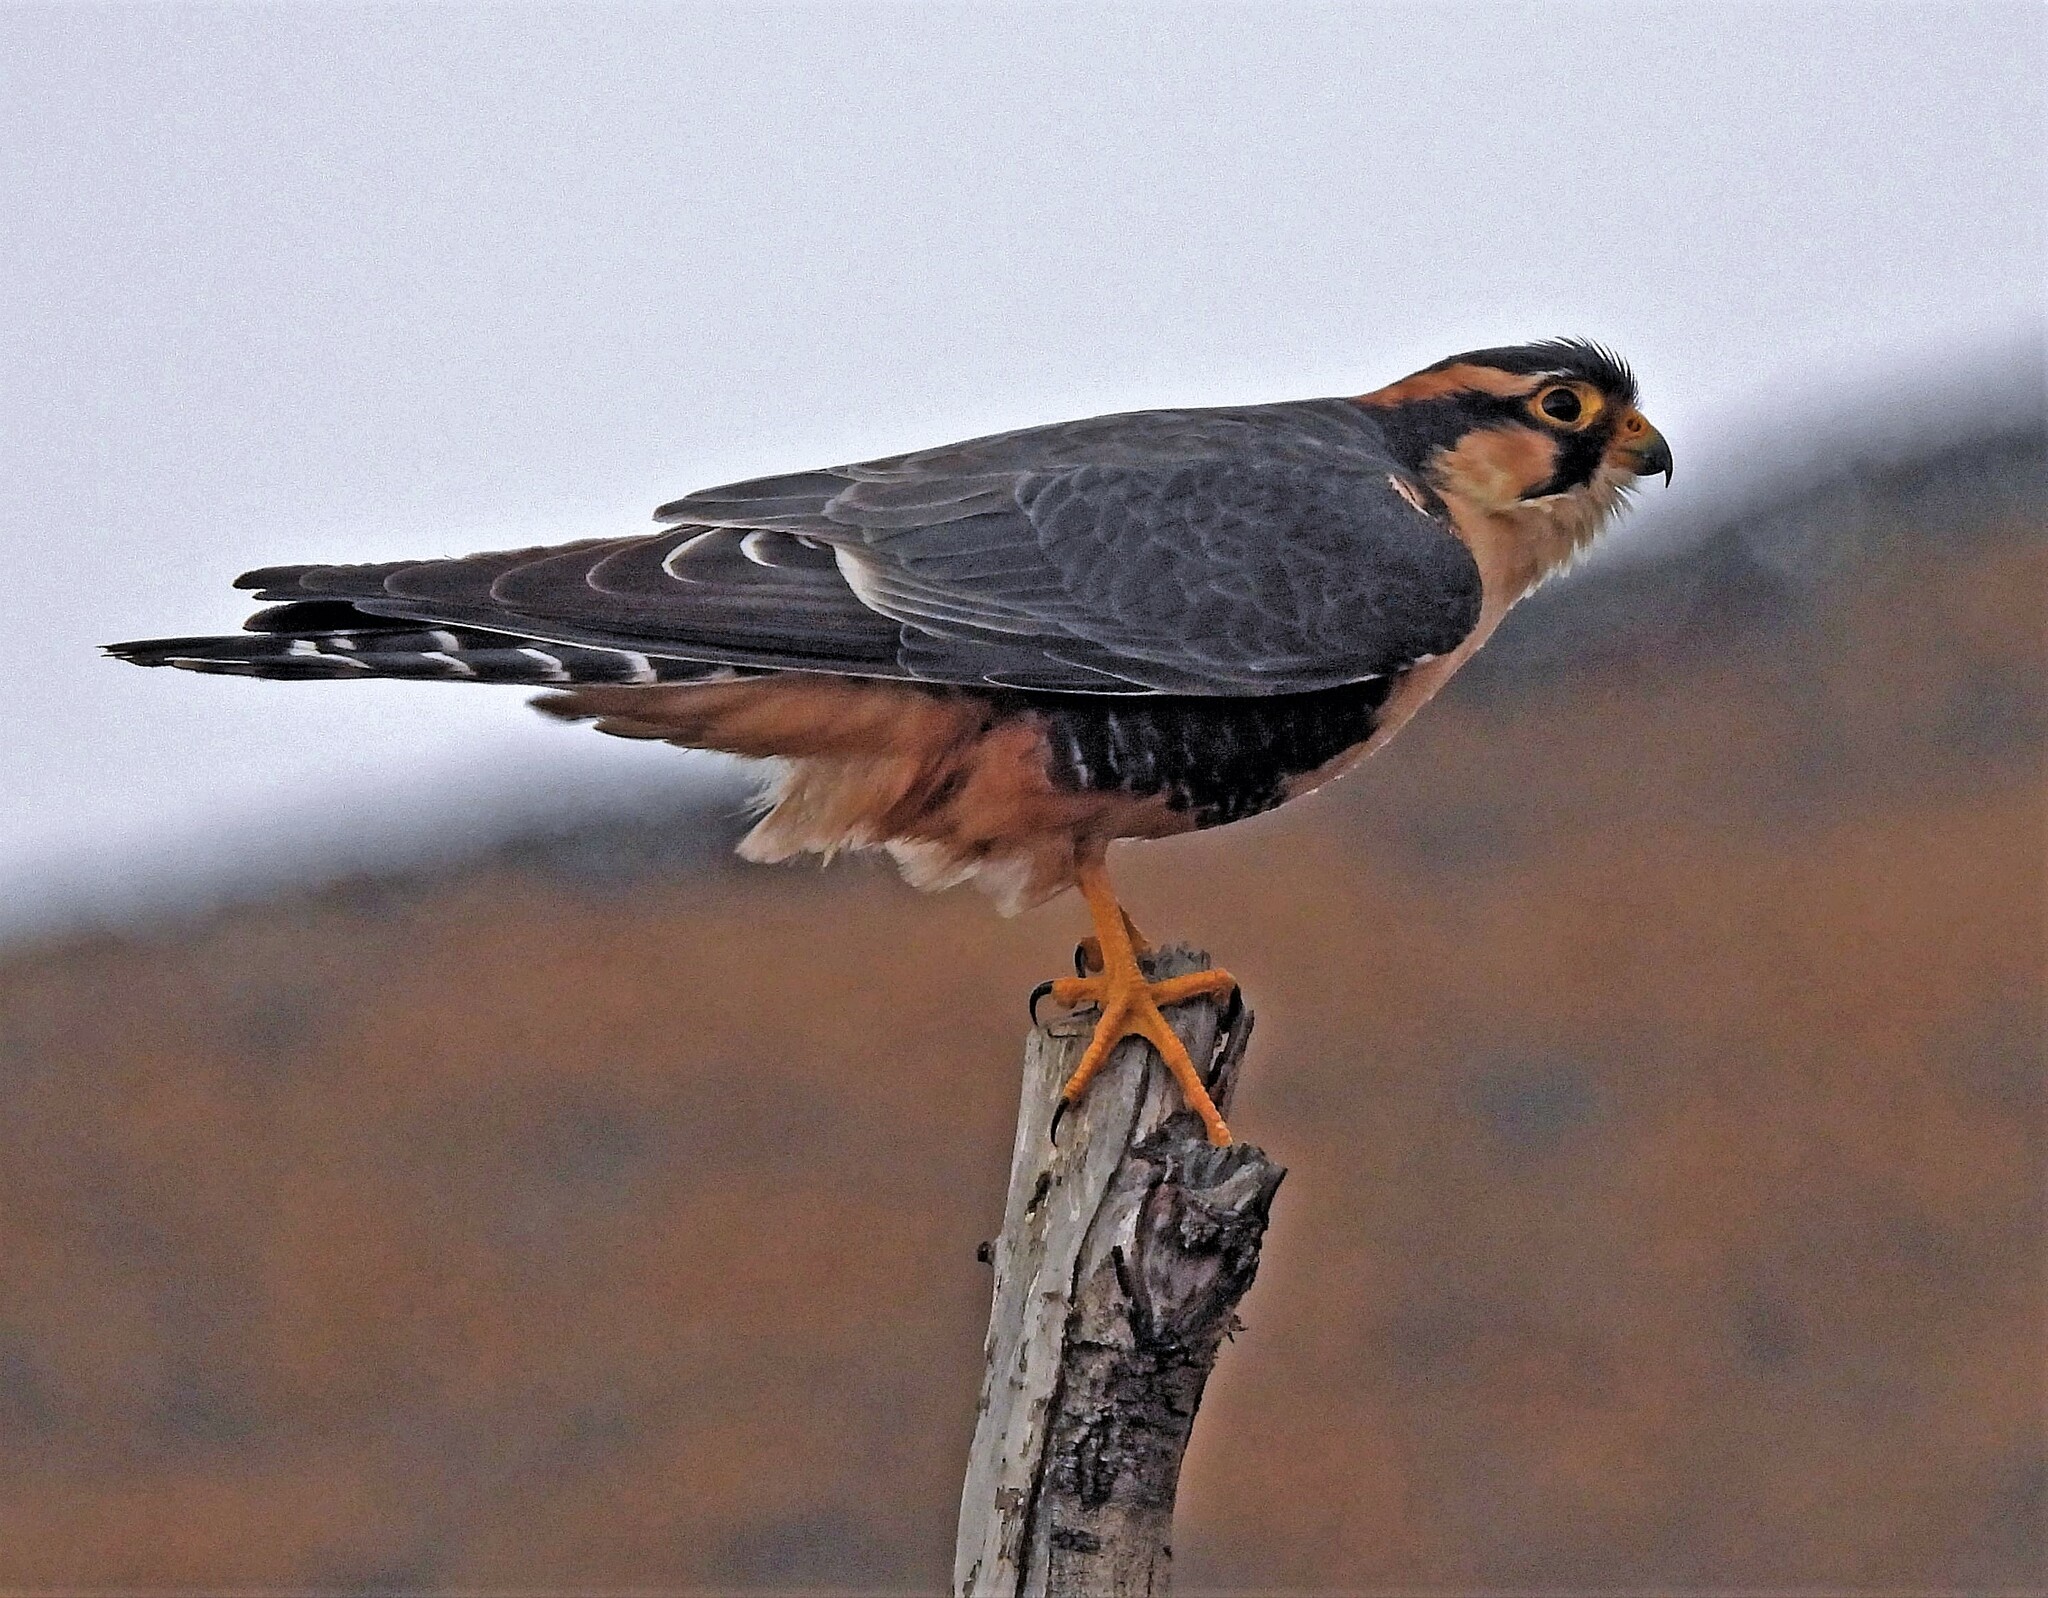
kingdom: Animalia
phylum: Chordata
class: Aves
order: Falconiformes
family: Falconidae
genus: Falco
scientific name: Falco femoralis
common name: Aplomado falcon
